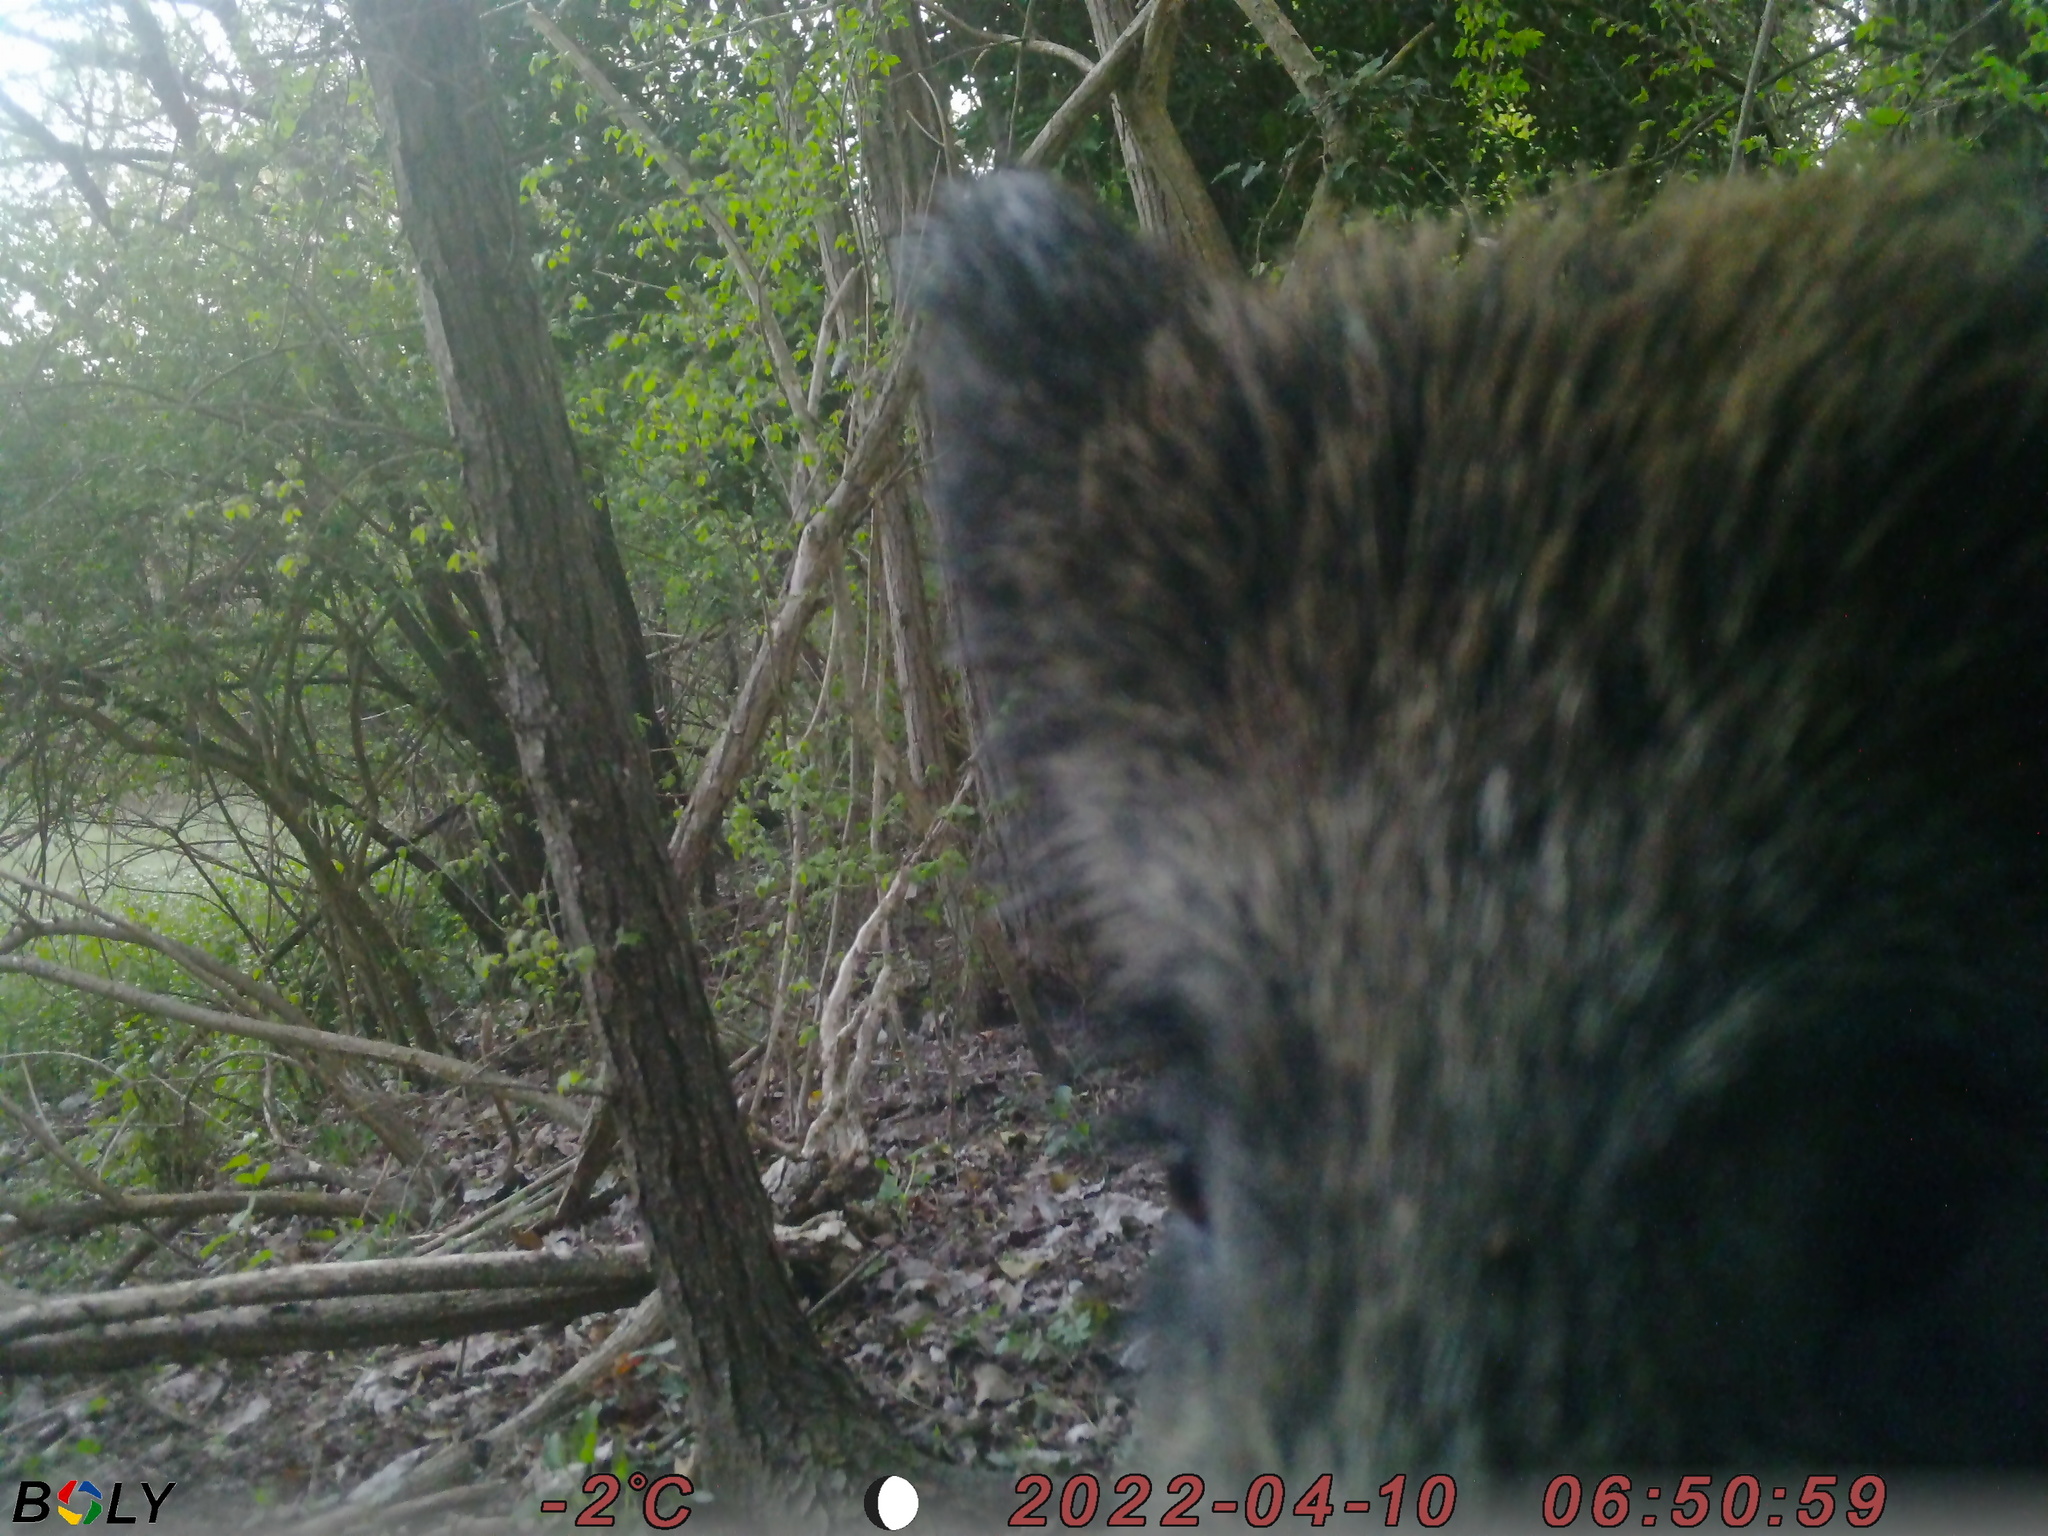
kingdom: Animalia
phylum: Chordata
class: Mammalia
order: Artiodactyla
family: Suidae
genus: Sus
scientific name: Sus scrofa
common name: Wild boar
